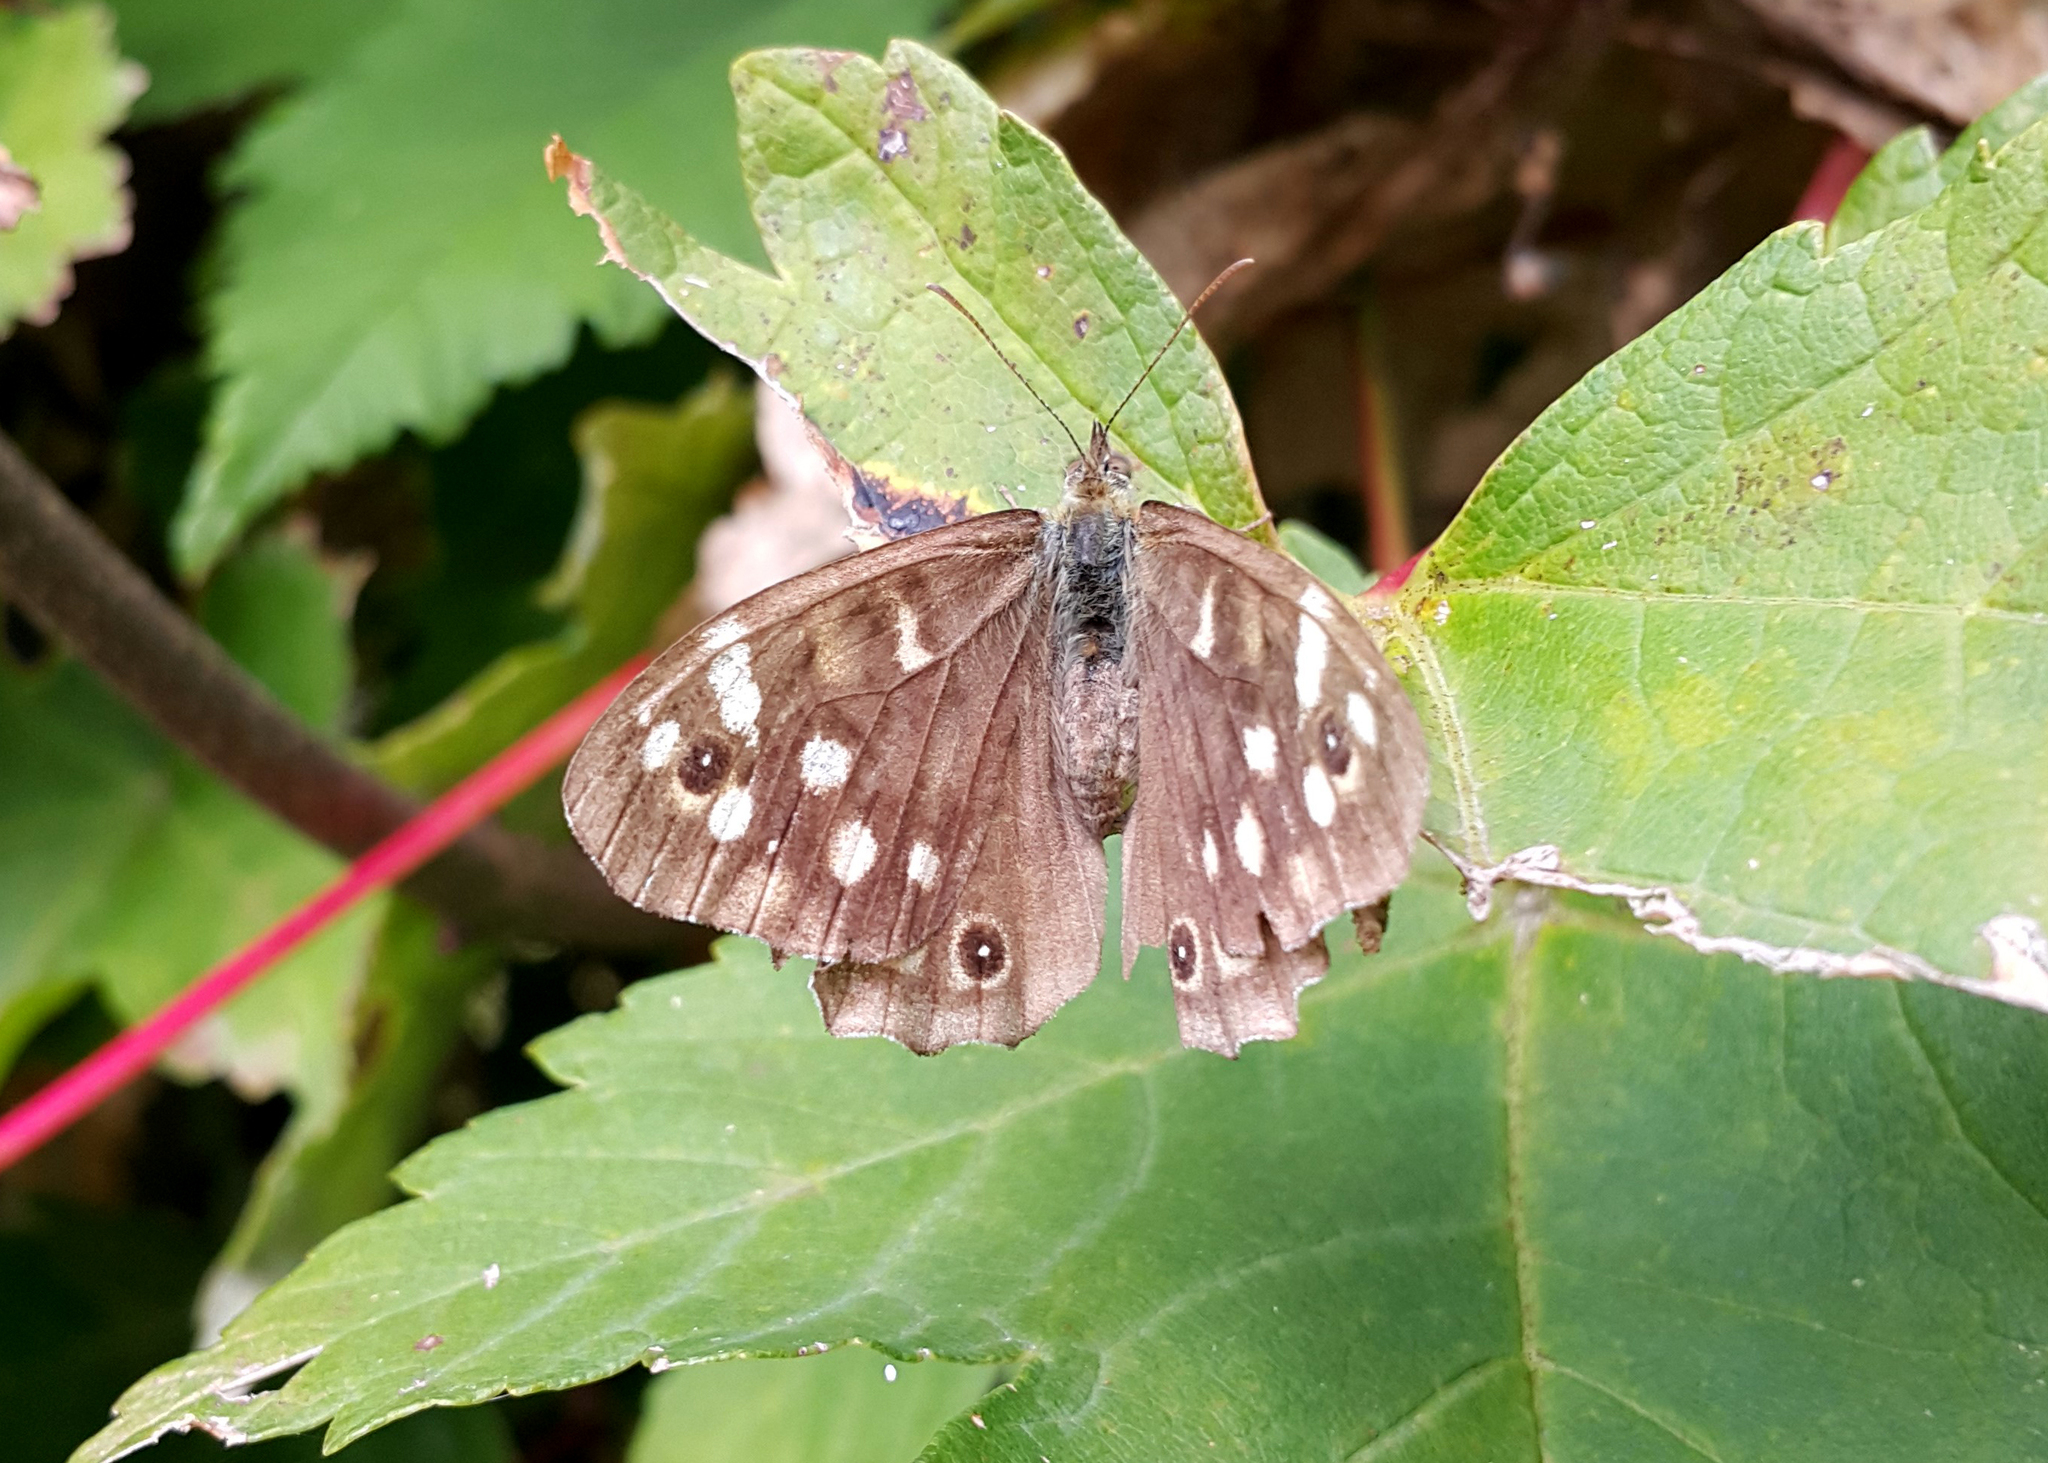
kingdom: Animalia
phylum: Arthropoda
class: Insecta
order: Lepidoptera
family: Nymphalidae
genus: Pararge
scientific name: Pararge aegeria
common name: Speckled wood
